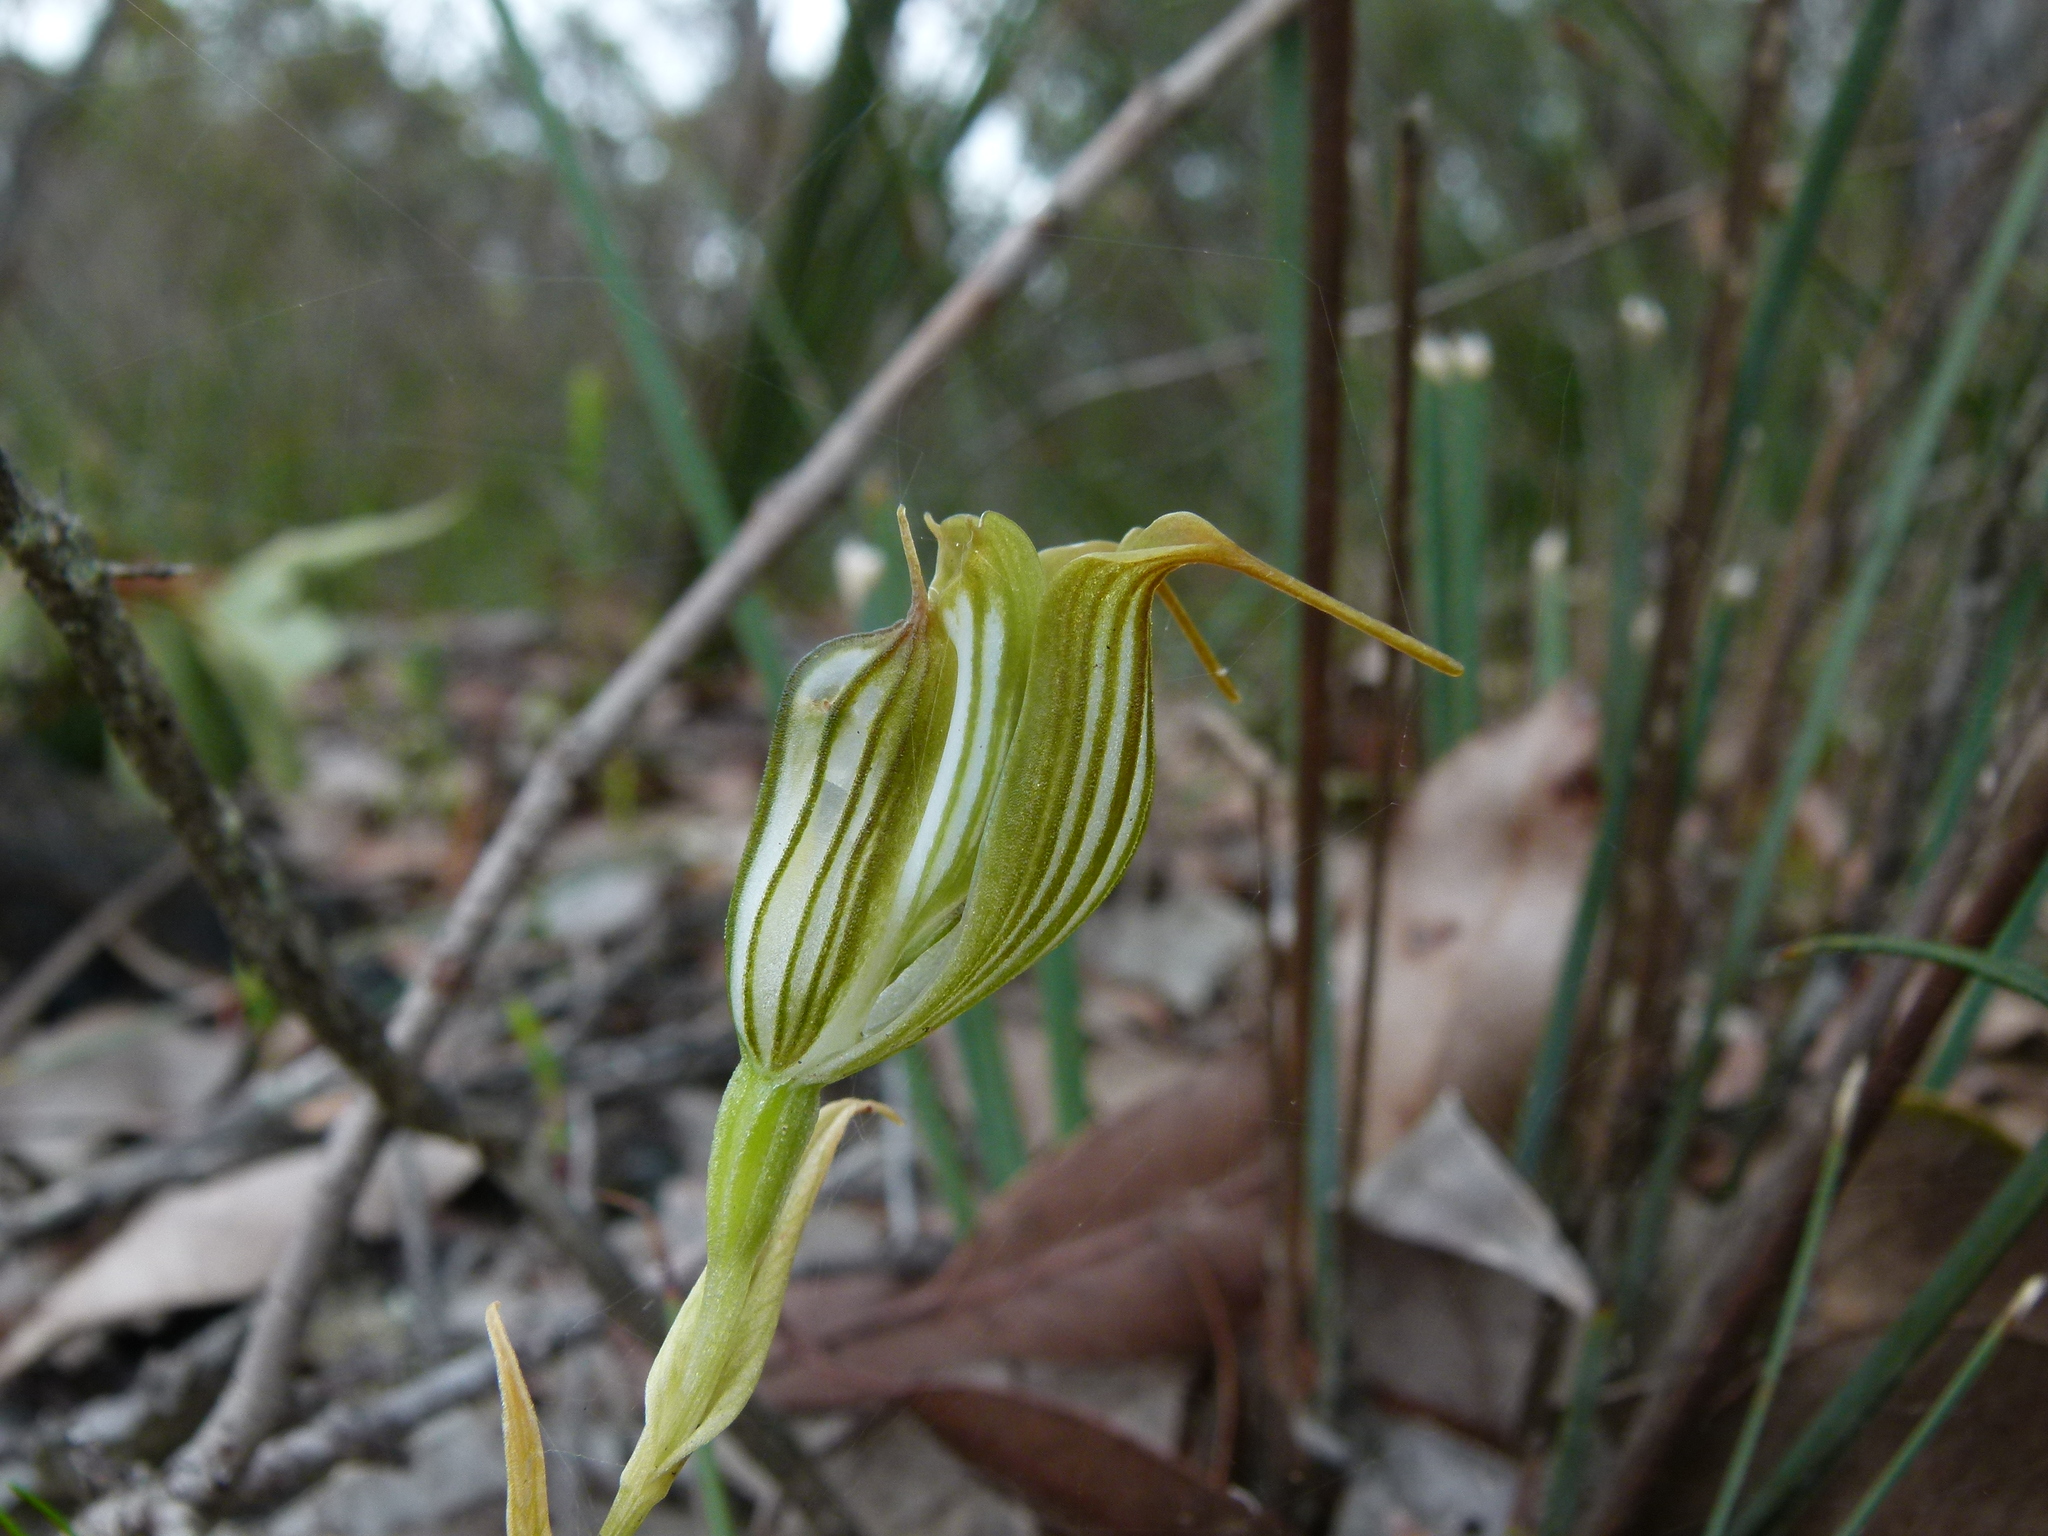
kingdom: Plantae
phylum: Tracheophyta
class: Liliopsida
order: Asparagales
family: Orchidaceae
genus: Pterostylis
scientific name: Pterostylis recurva
